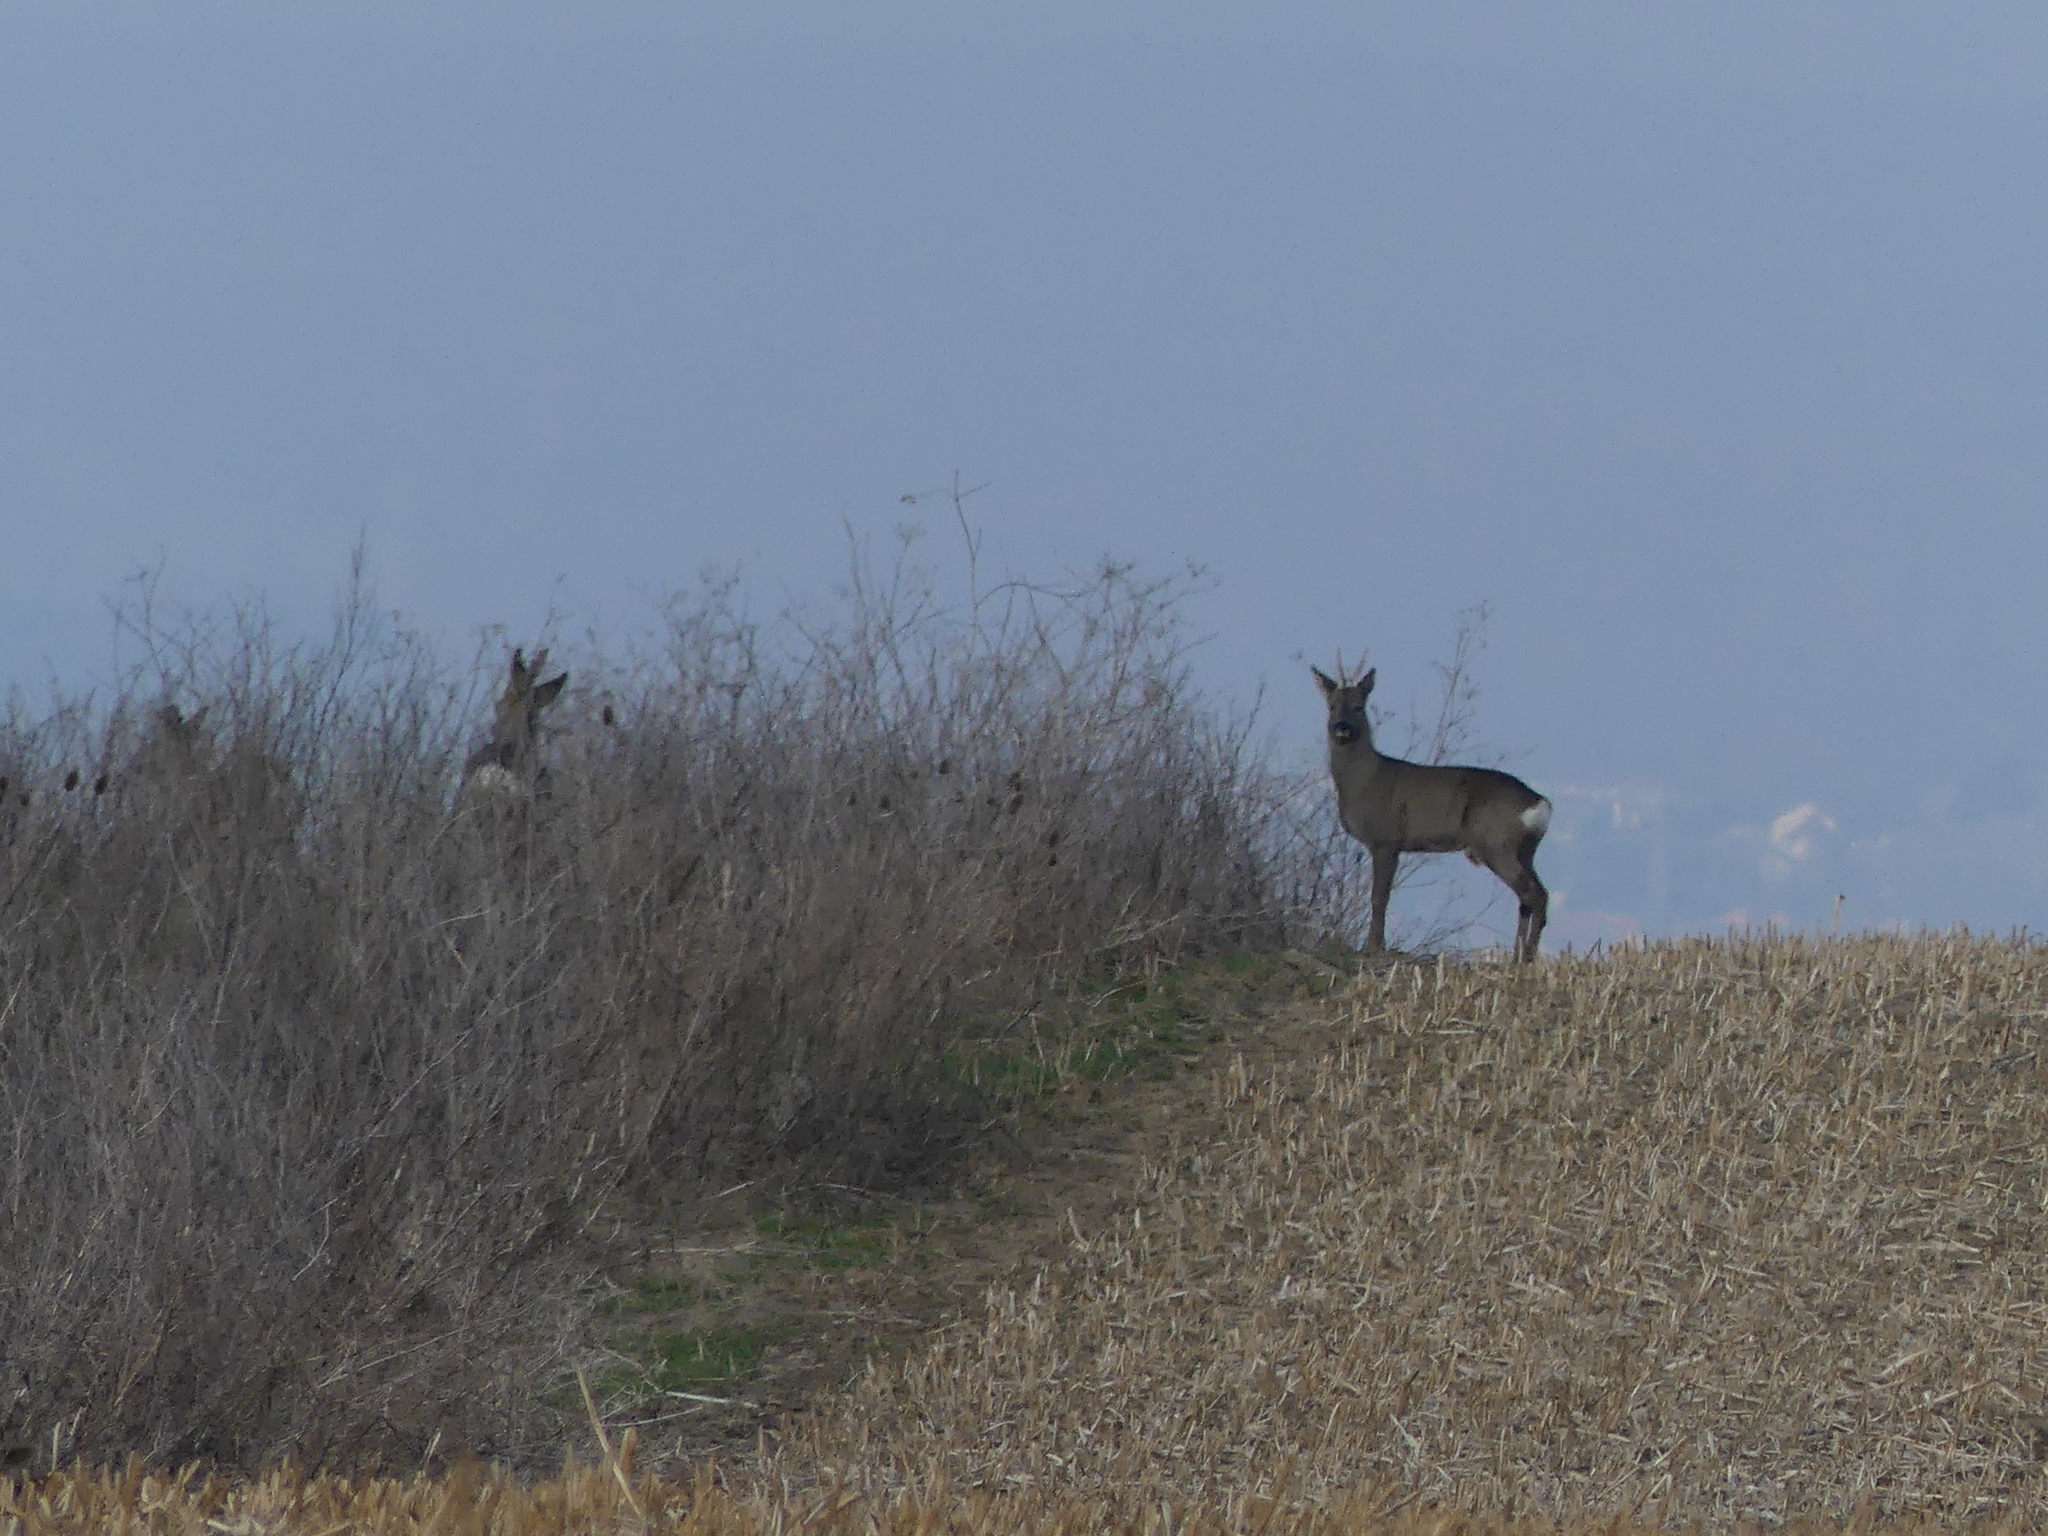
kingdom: Animalia
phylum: Chordata
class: Mammalia
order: Artiodactyla
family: Cervidae
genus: Capreolus
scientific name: Capreolus capreolus
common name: Western roe deer
